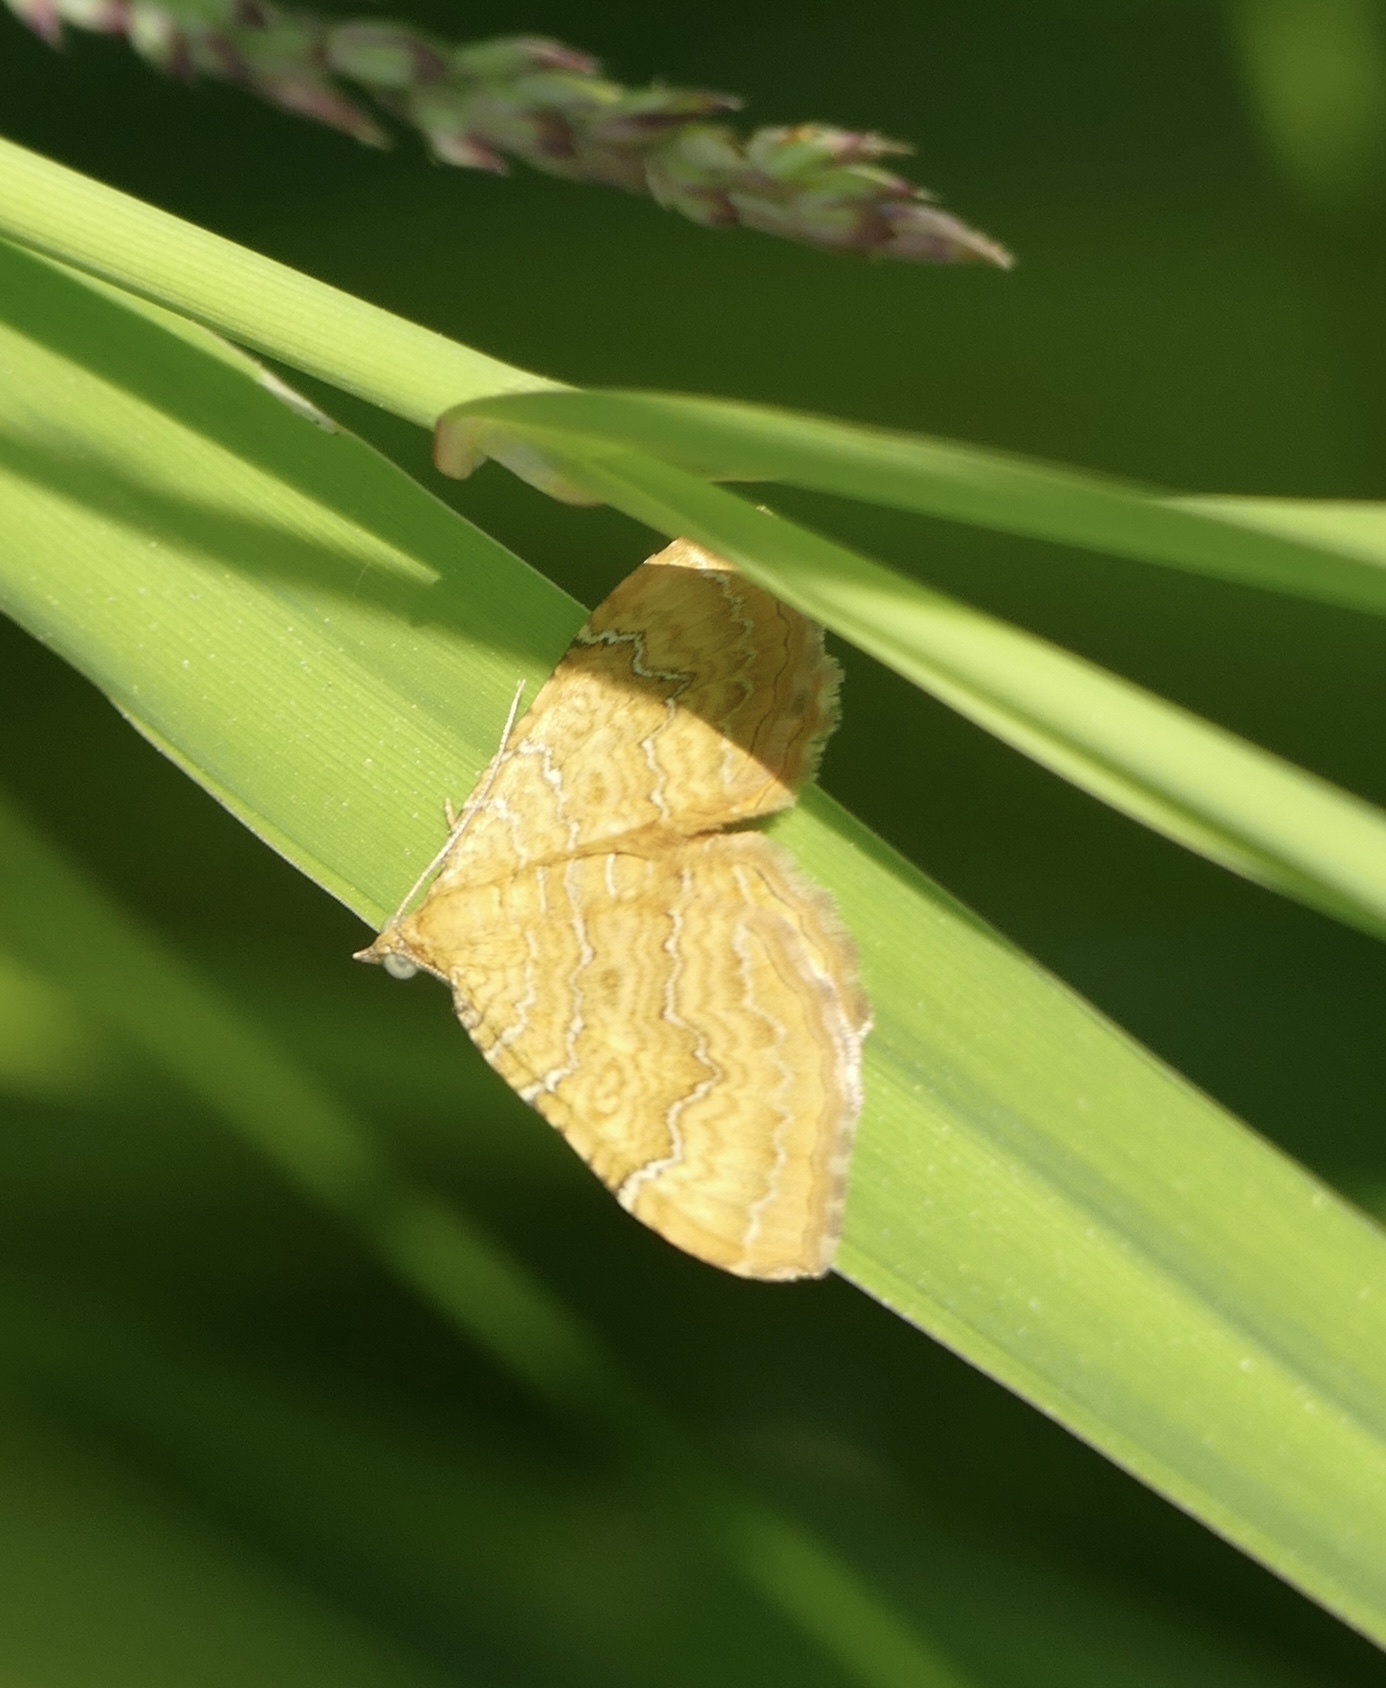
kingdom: Animalia
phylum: Arthropoda
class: Insecta
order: Lepidoptera
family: Geometridae
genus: Camptogramma
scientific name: Camptogramma bilineata
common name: Yellow shell
